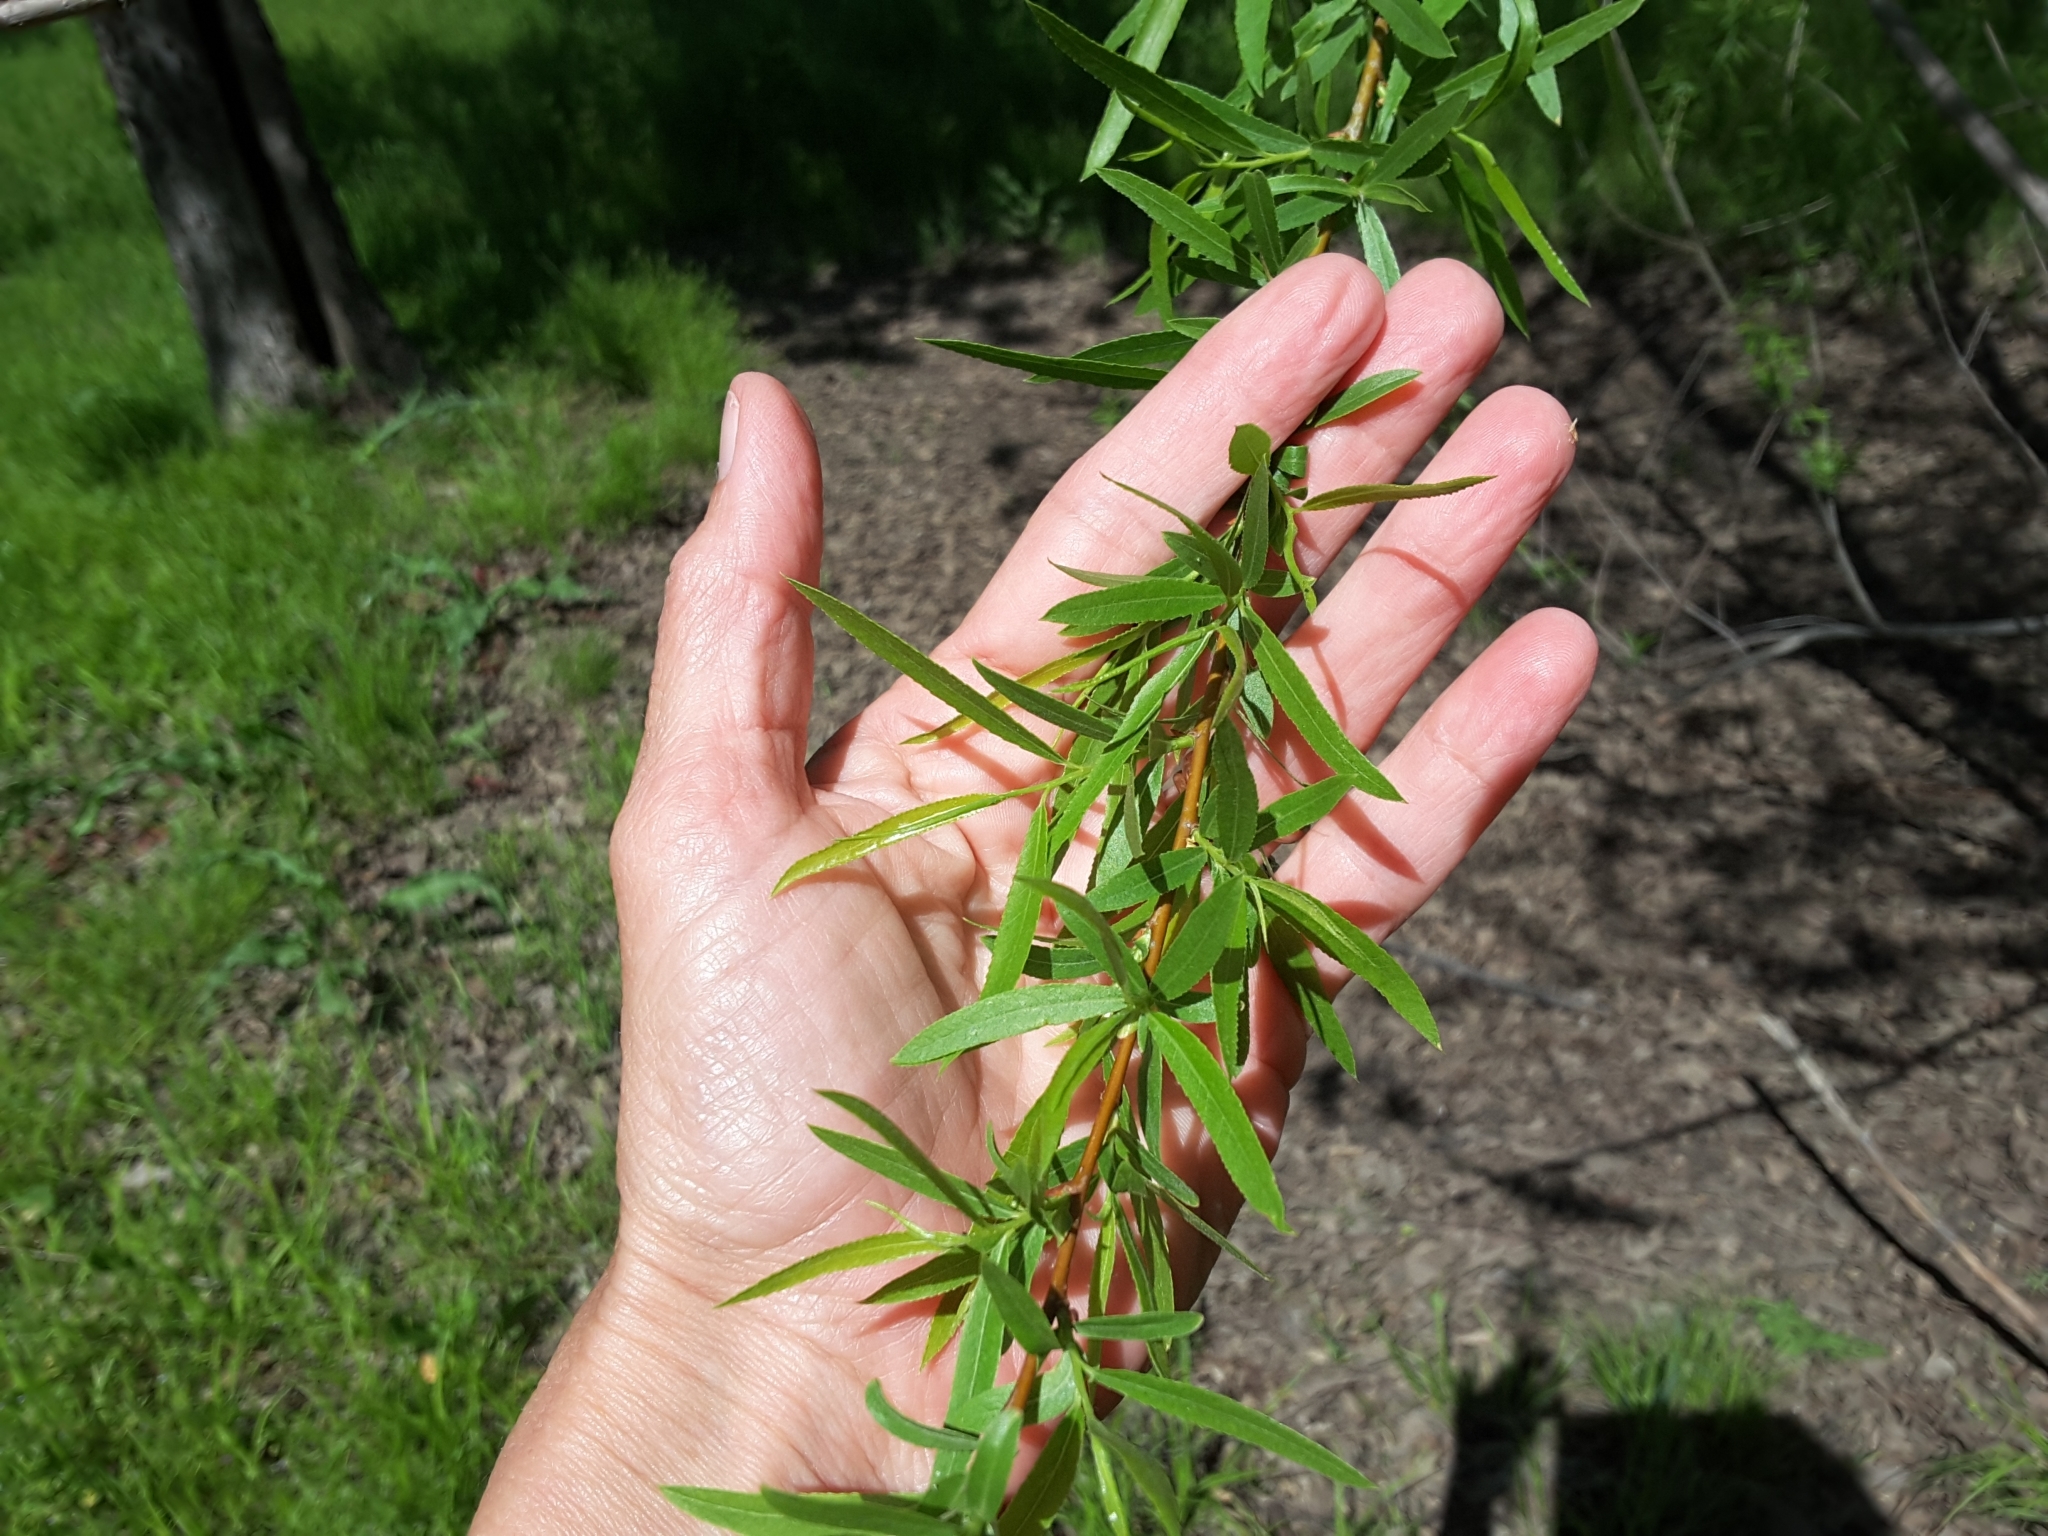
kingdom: Plantae
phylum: Tracheophyta
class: Magnoliopsida
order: Malpighiales
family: Salicaceae
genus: Salix
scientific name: Salix nigra
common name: Black willow
